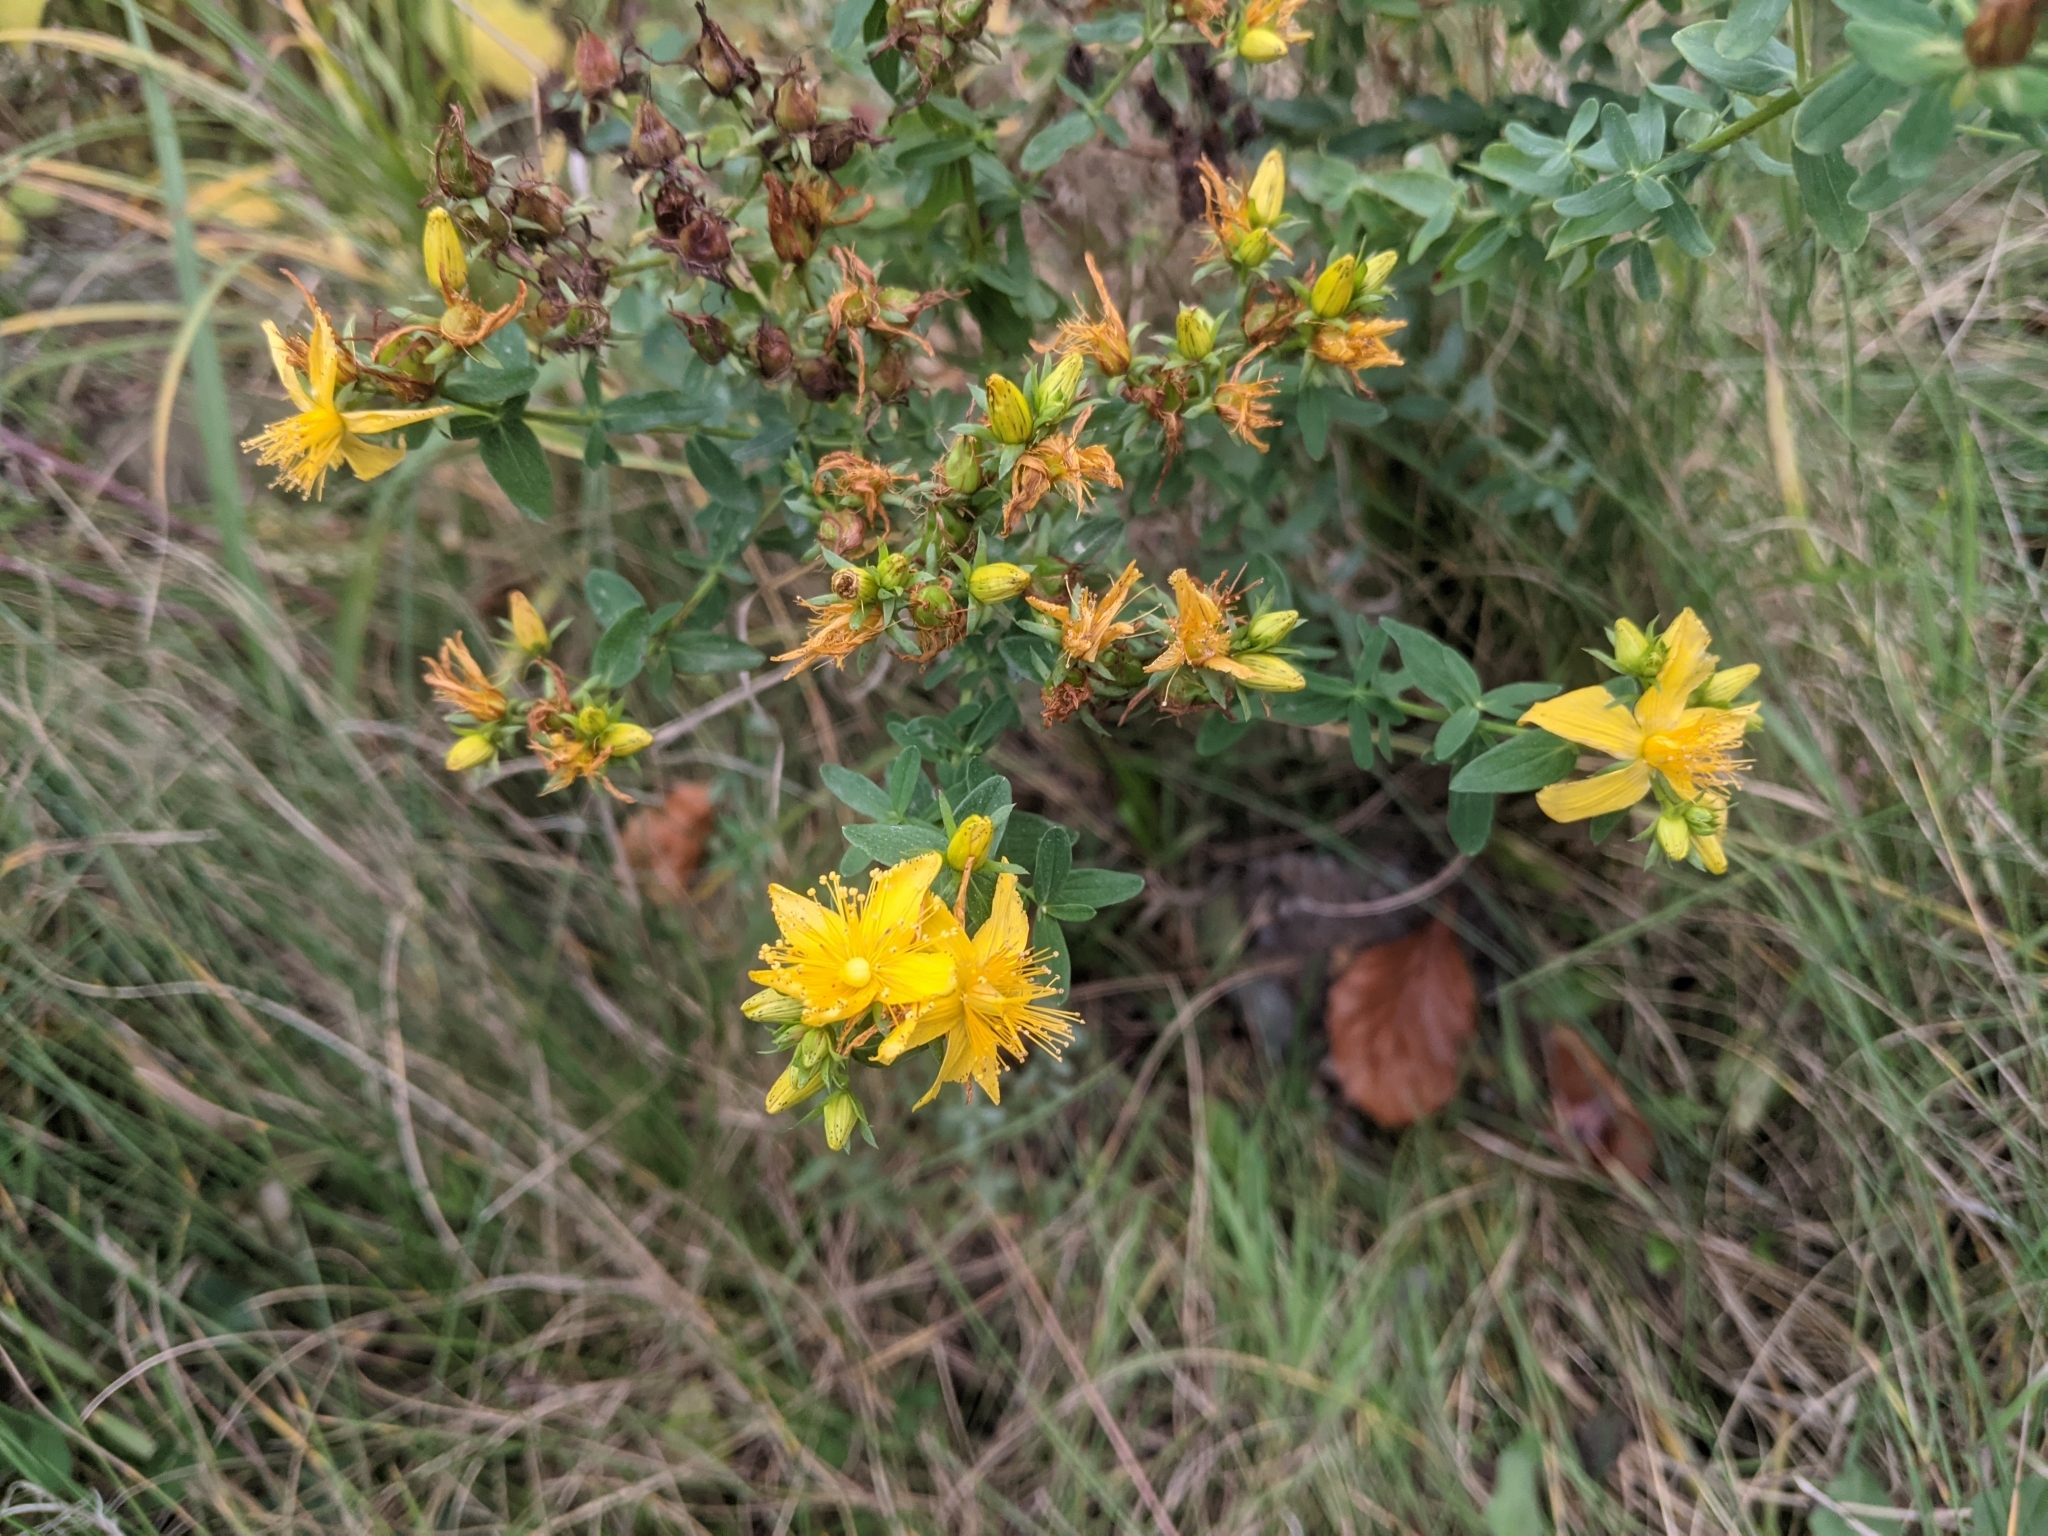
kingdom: Plantae
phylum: Tracheophyta
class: Magnoliopsida
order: Malpighiales
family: Hypericaceae
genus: Hypericum
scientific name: Hypericum perforatum
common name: Common st. johnswort
